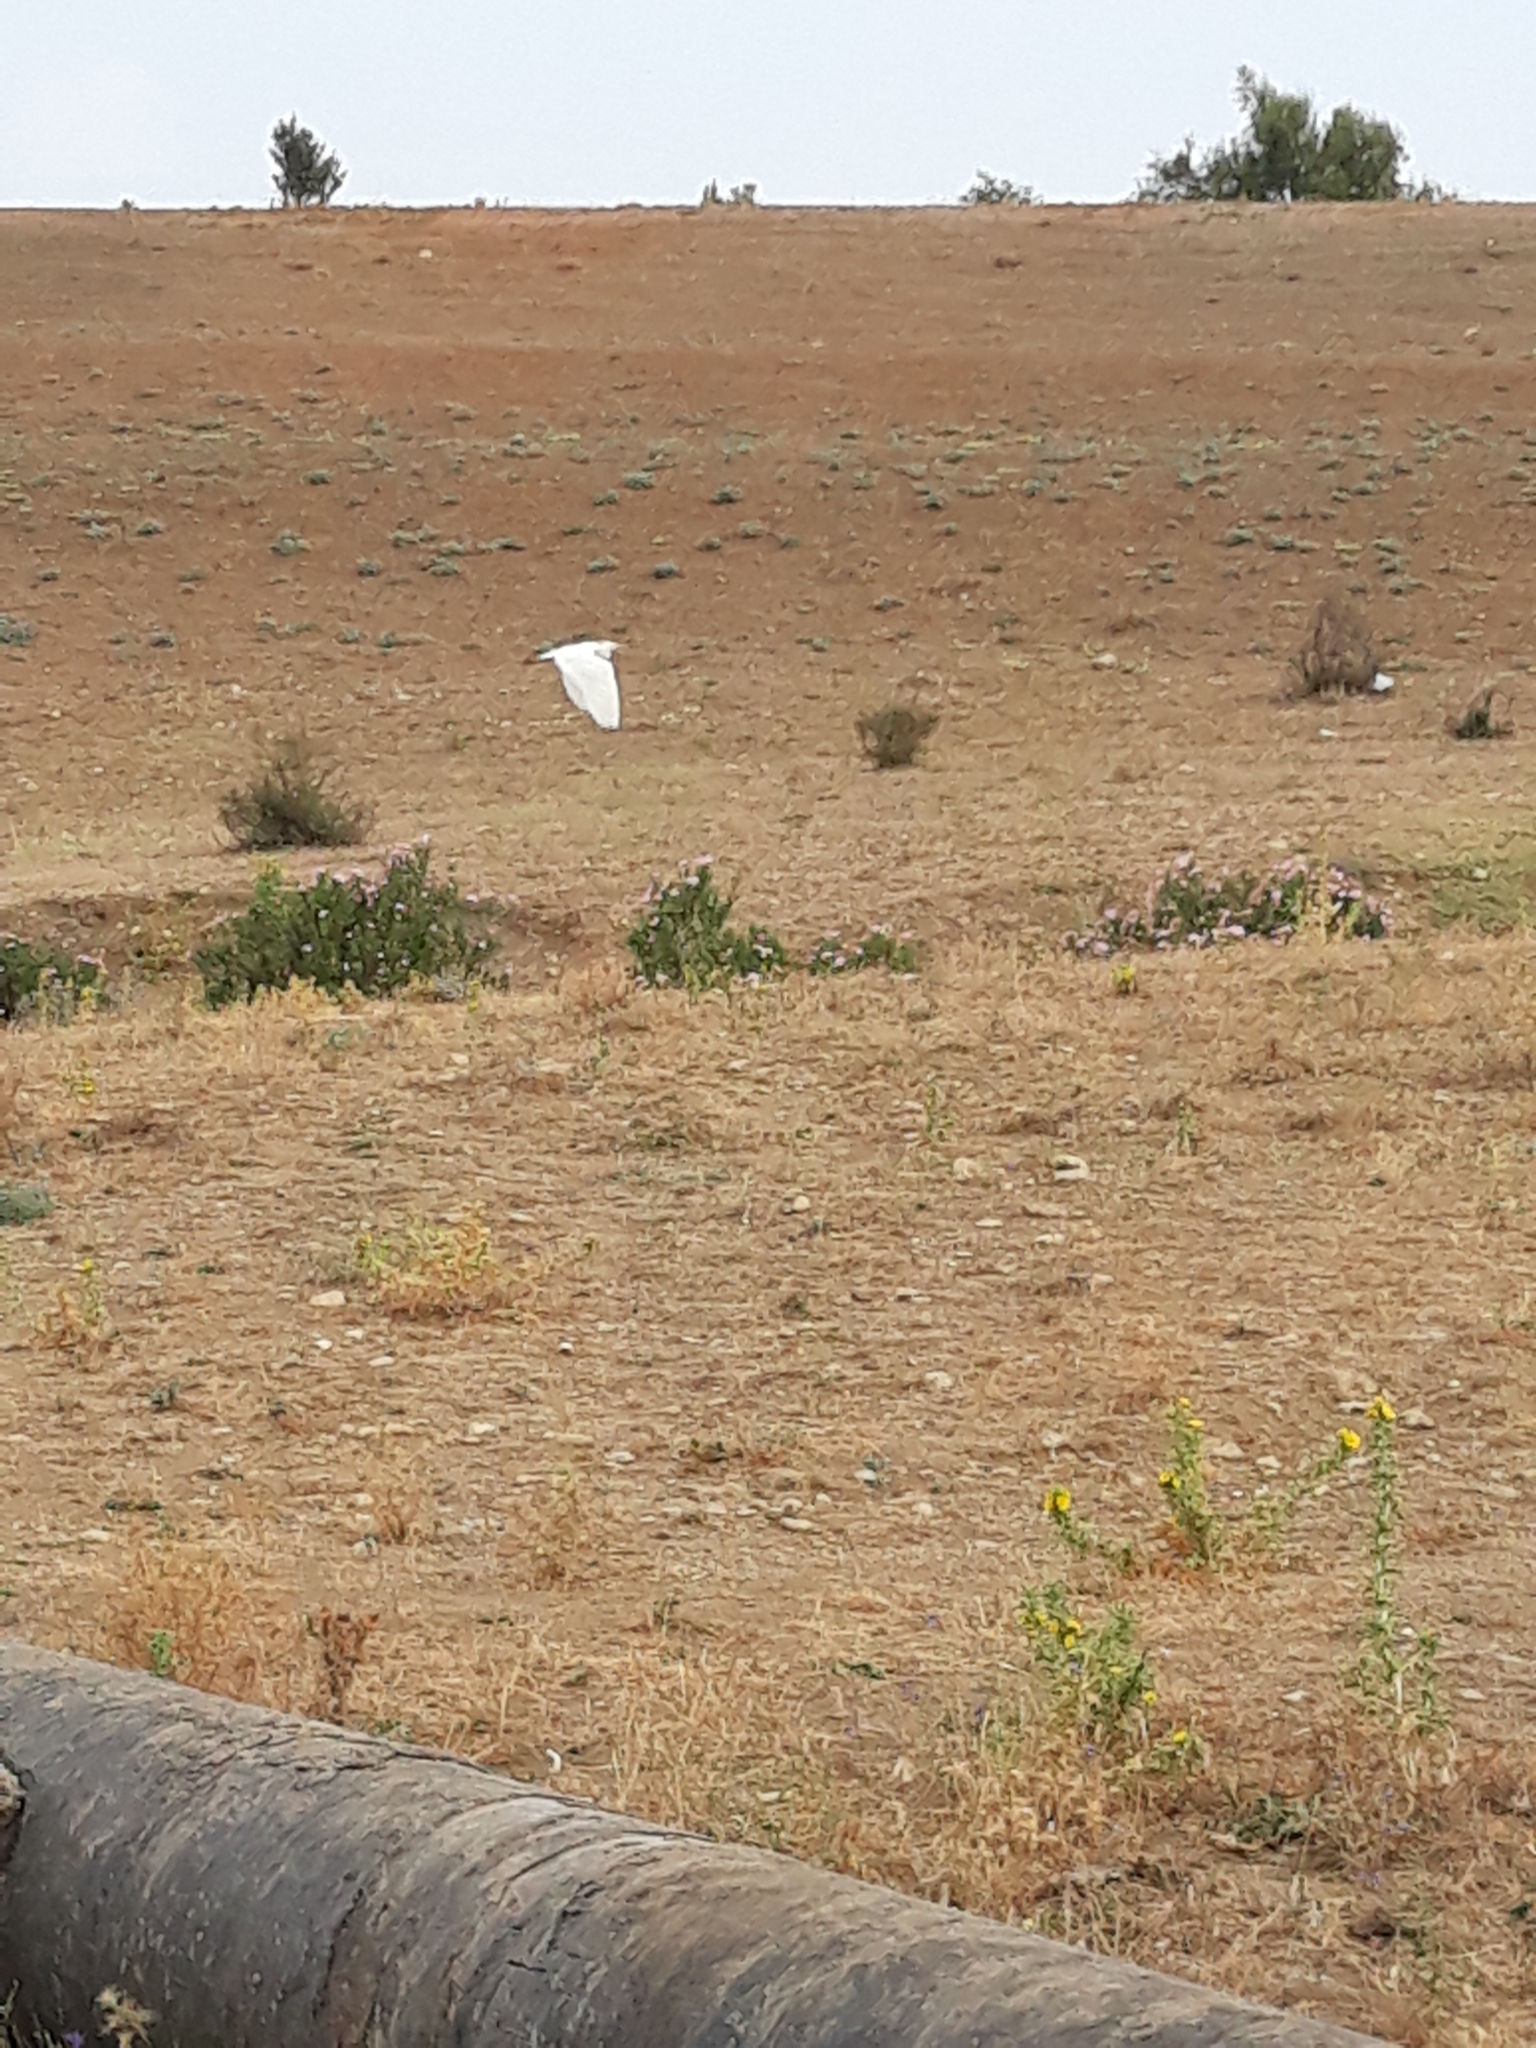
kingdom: Animalia
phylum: Chordata
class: Aves
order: Pelecaniformes
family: Ardeidae
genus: Bubulcus
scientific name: Bubulcus ibis
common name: Cattle egret
